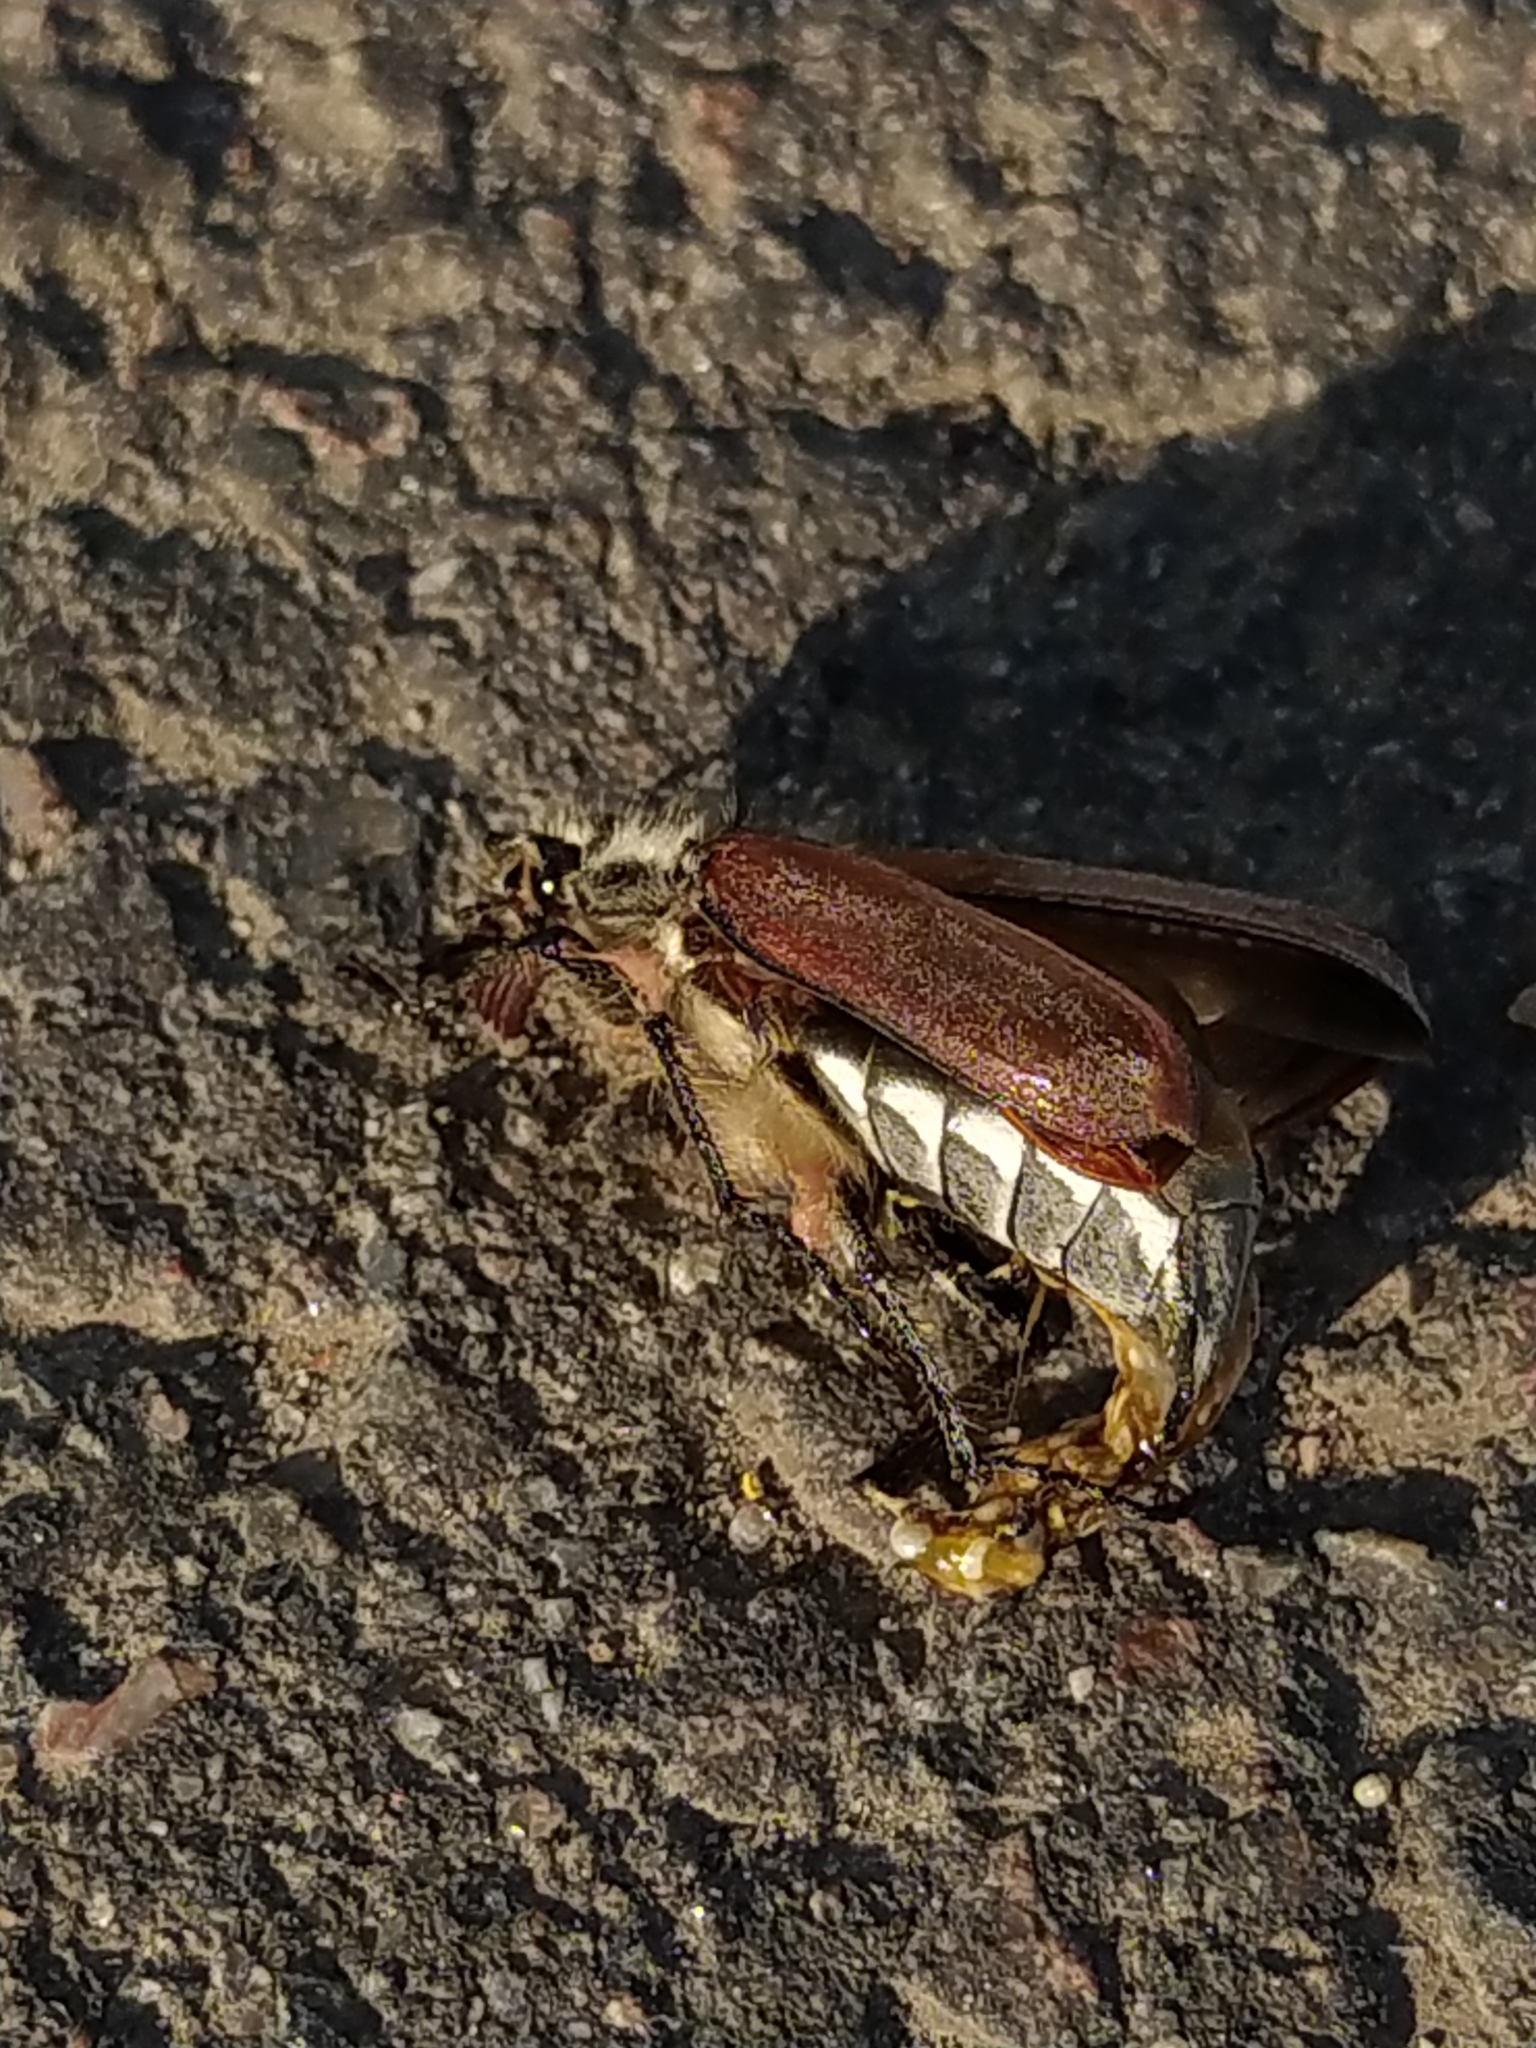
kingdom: Animalia
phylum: Arthropoda
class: Insecta
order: Coleoptera
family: Scarabaeidae
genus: Melolontha
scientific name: Melolontha hippocastani
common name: Chestnut cockchafer
